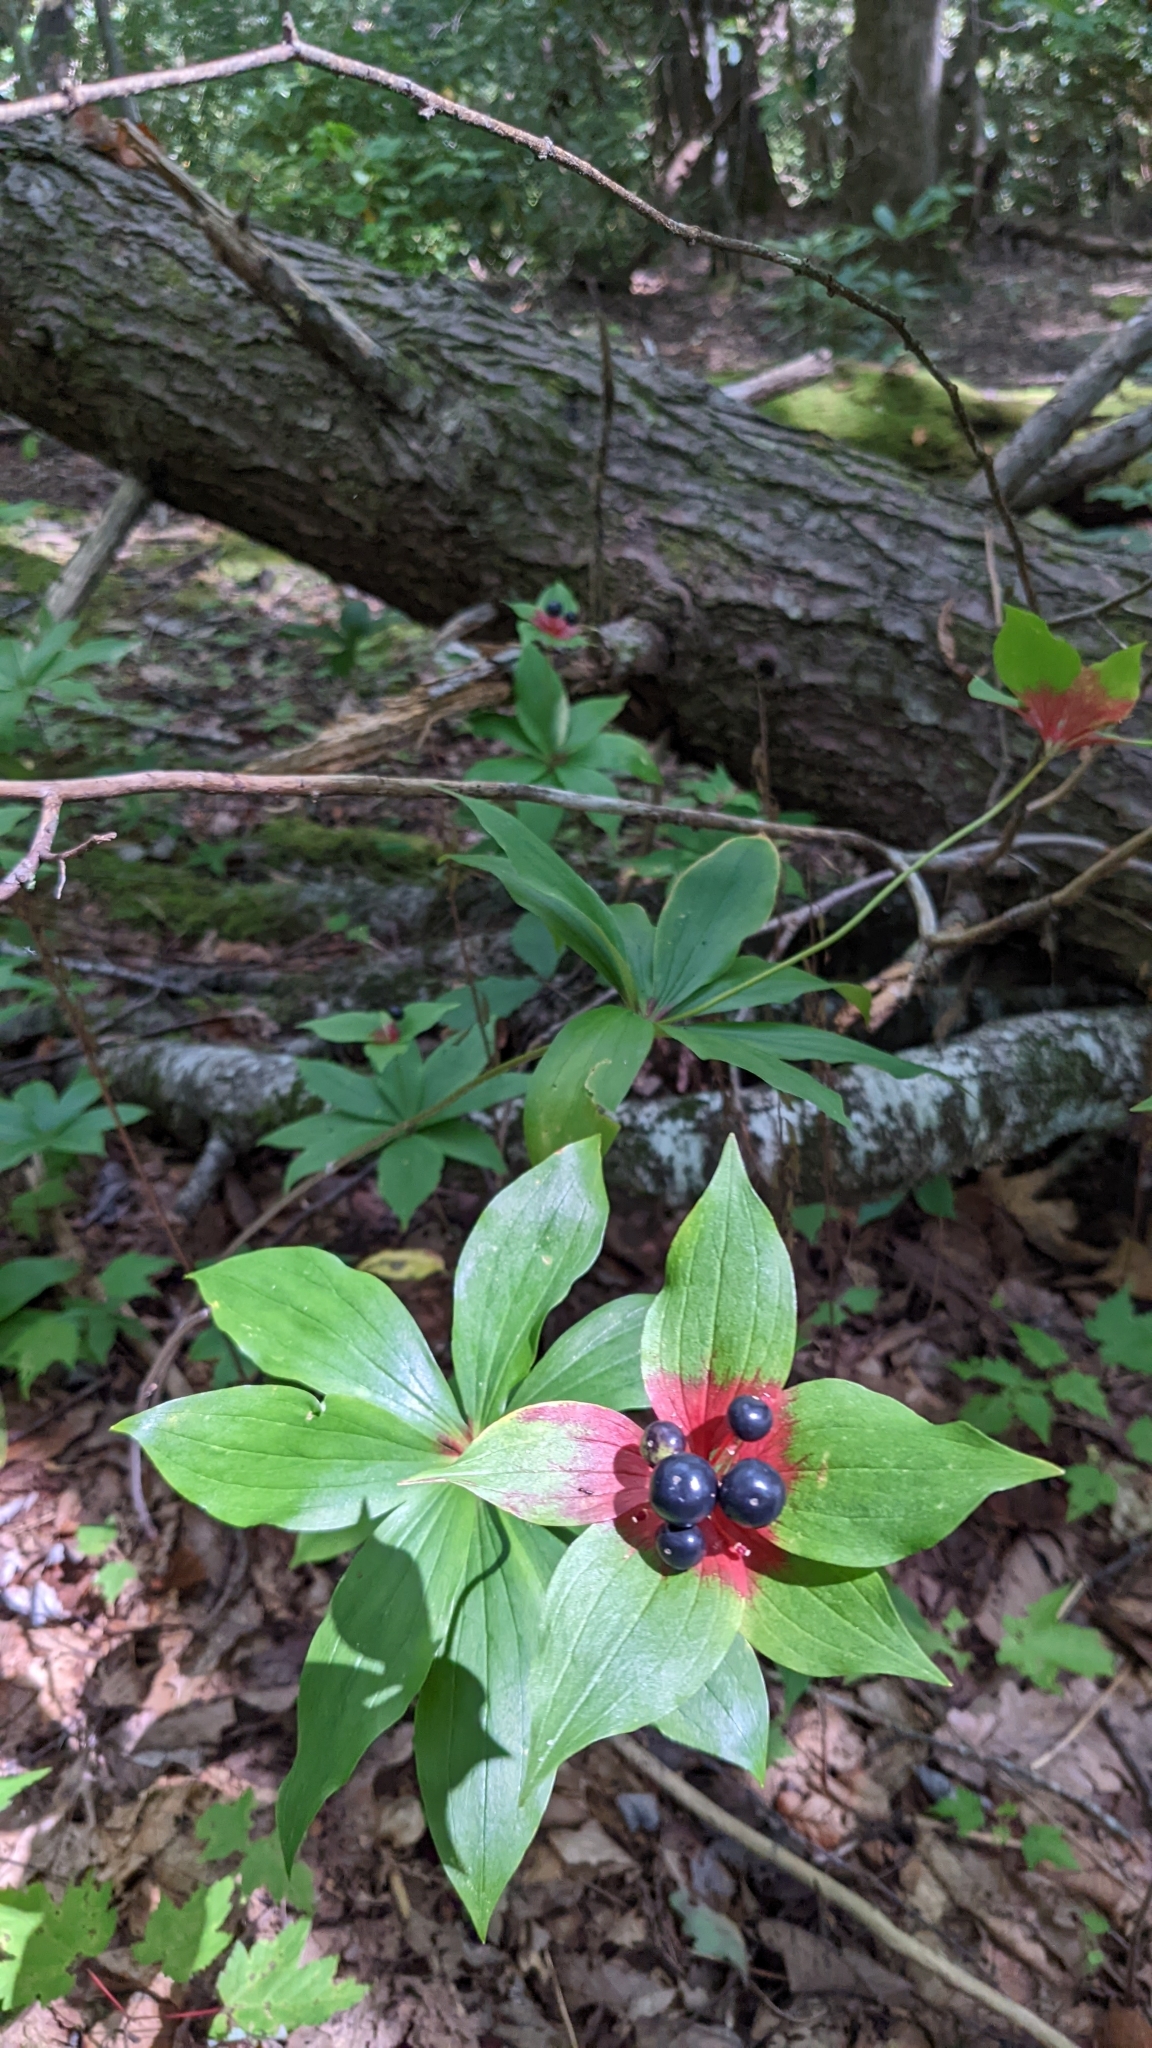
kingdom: Plantae
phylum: Tracheophyta
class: Liliopsida
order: Liliales
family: Liliaceae
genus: Medeola
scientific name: Medeola virginiana
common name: Indian cucumber-root
